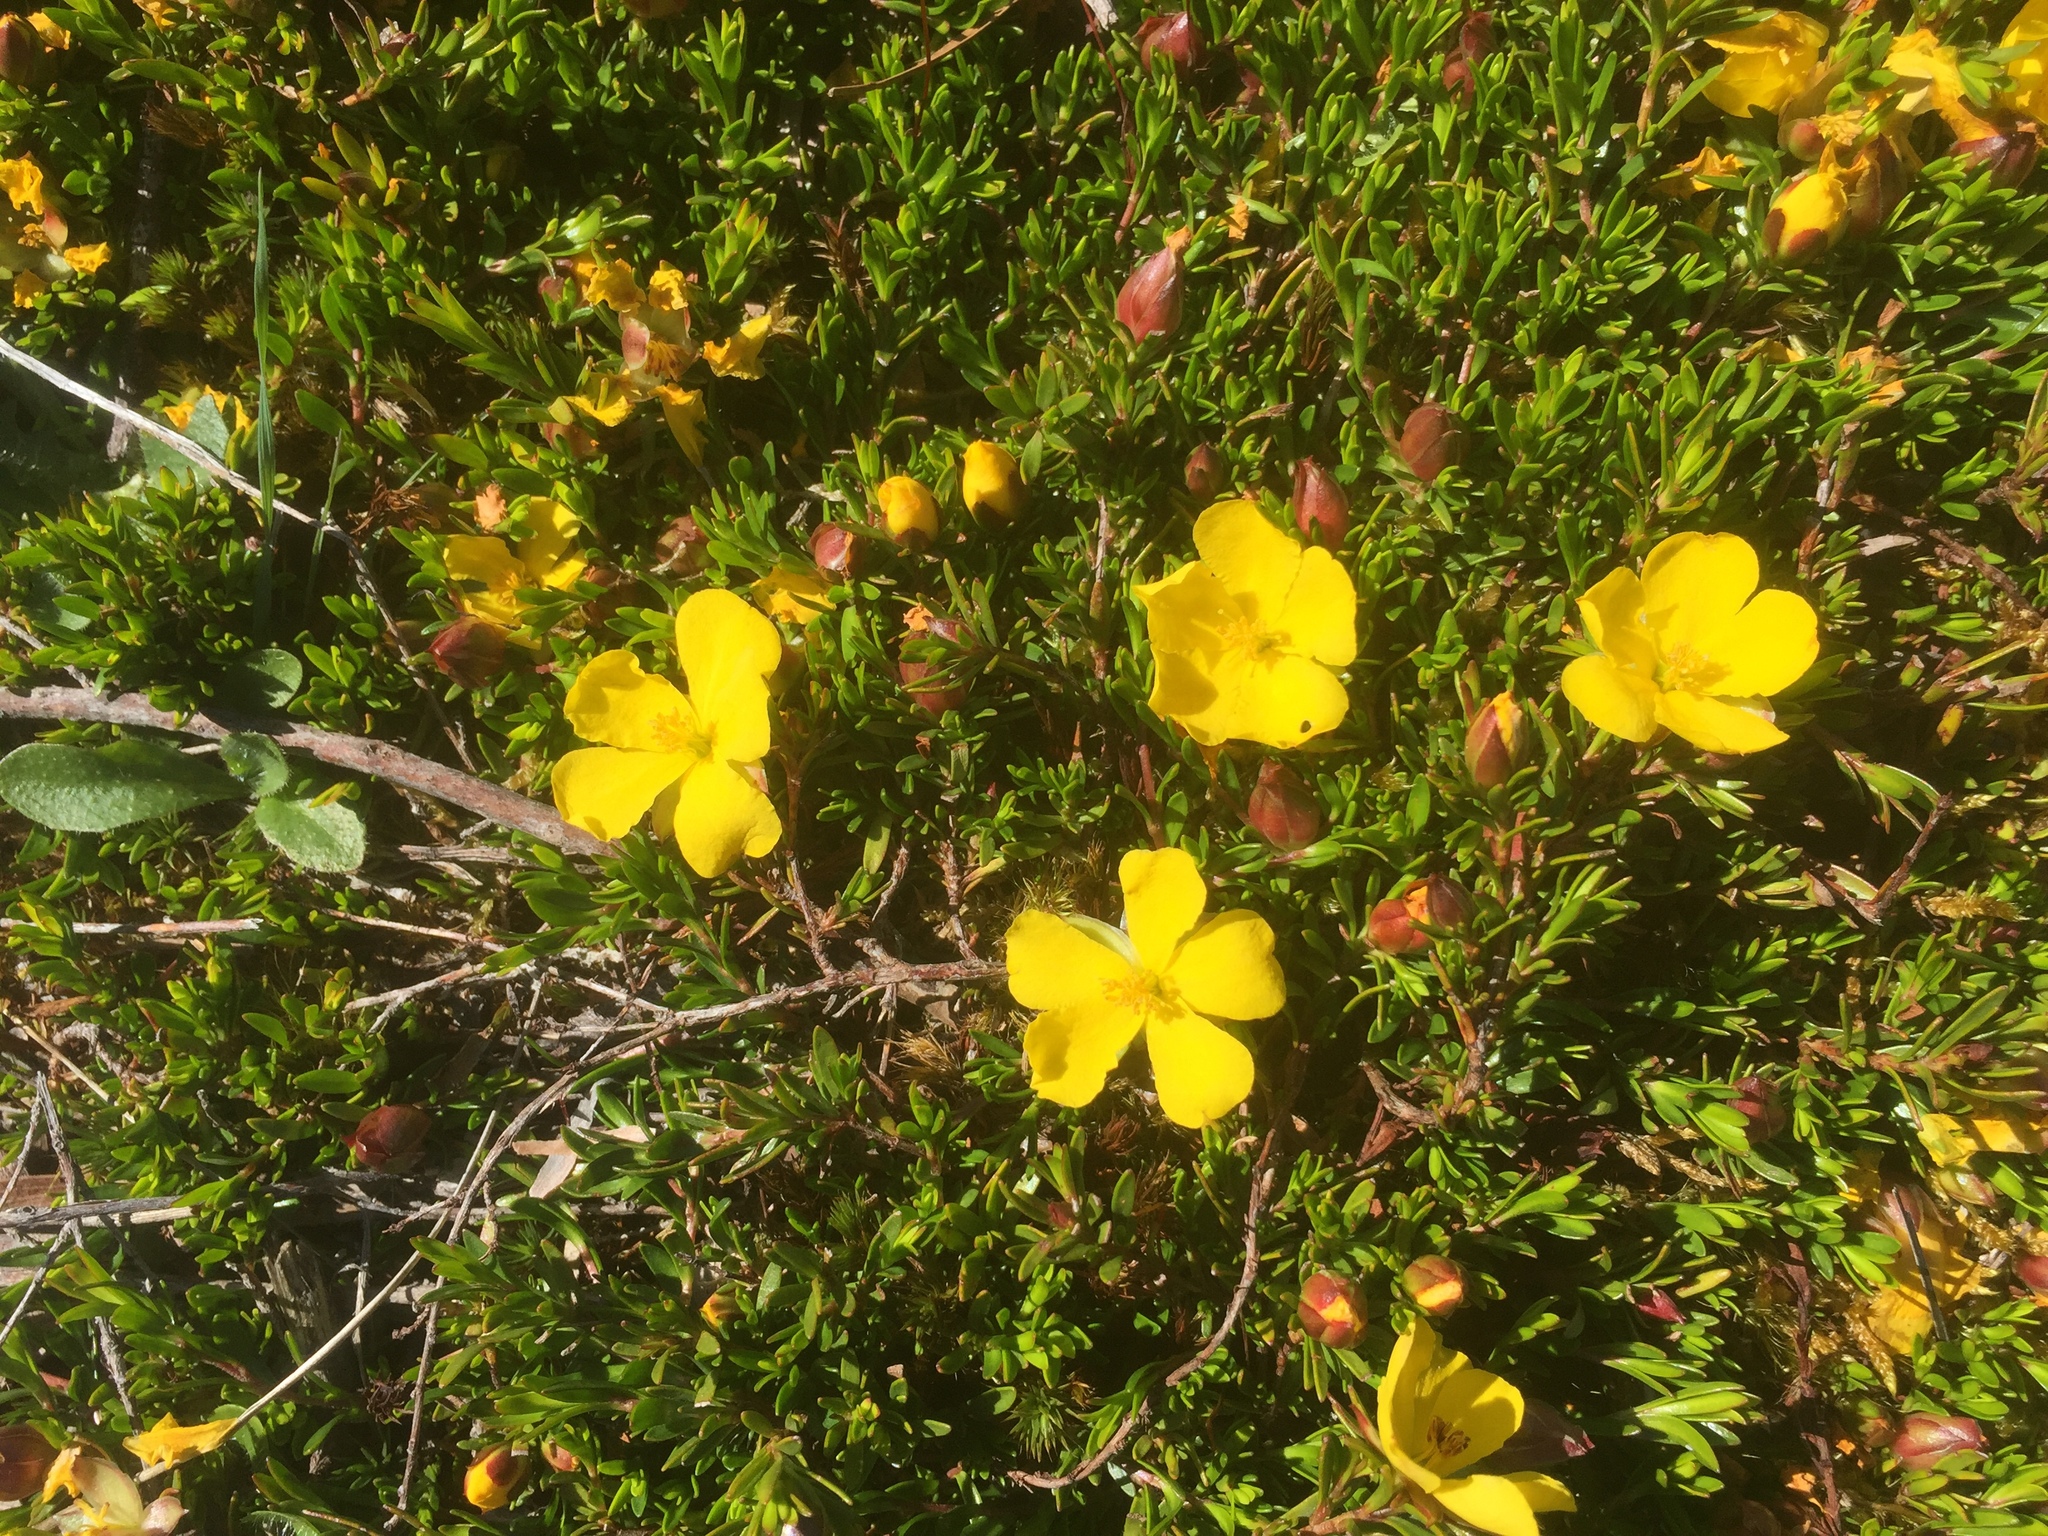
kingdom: Plantae
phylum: Tracheophyta
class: Magnoliopsida
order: Dilleniales
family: Dilleniaceae
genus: Hibbertia
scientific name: Hibbertia procumbens
